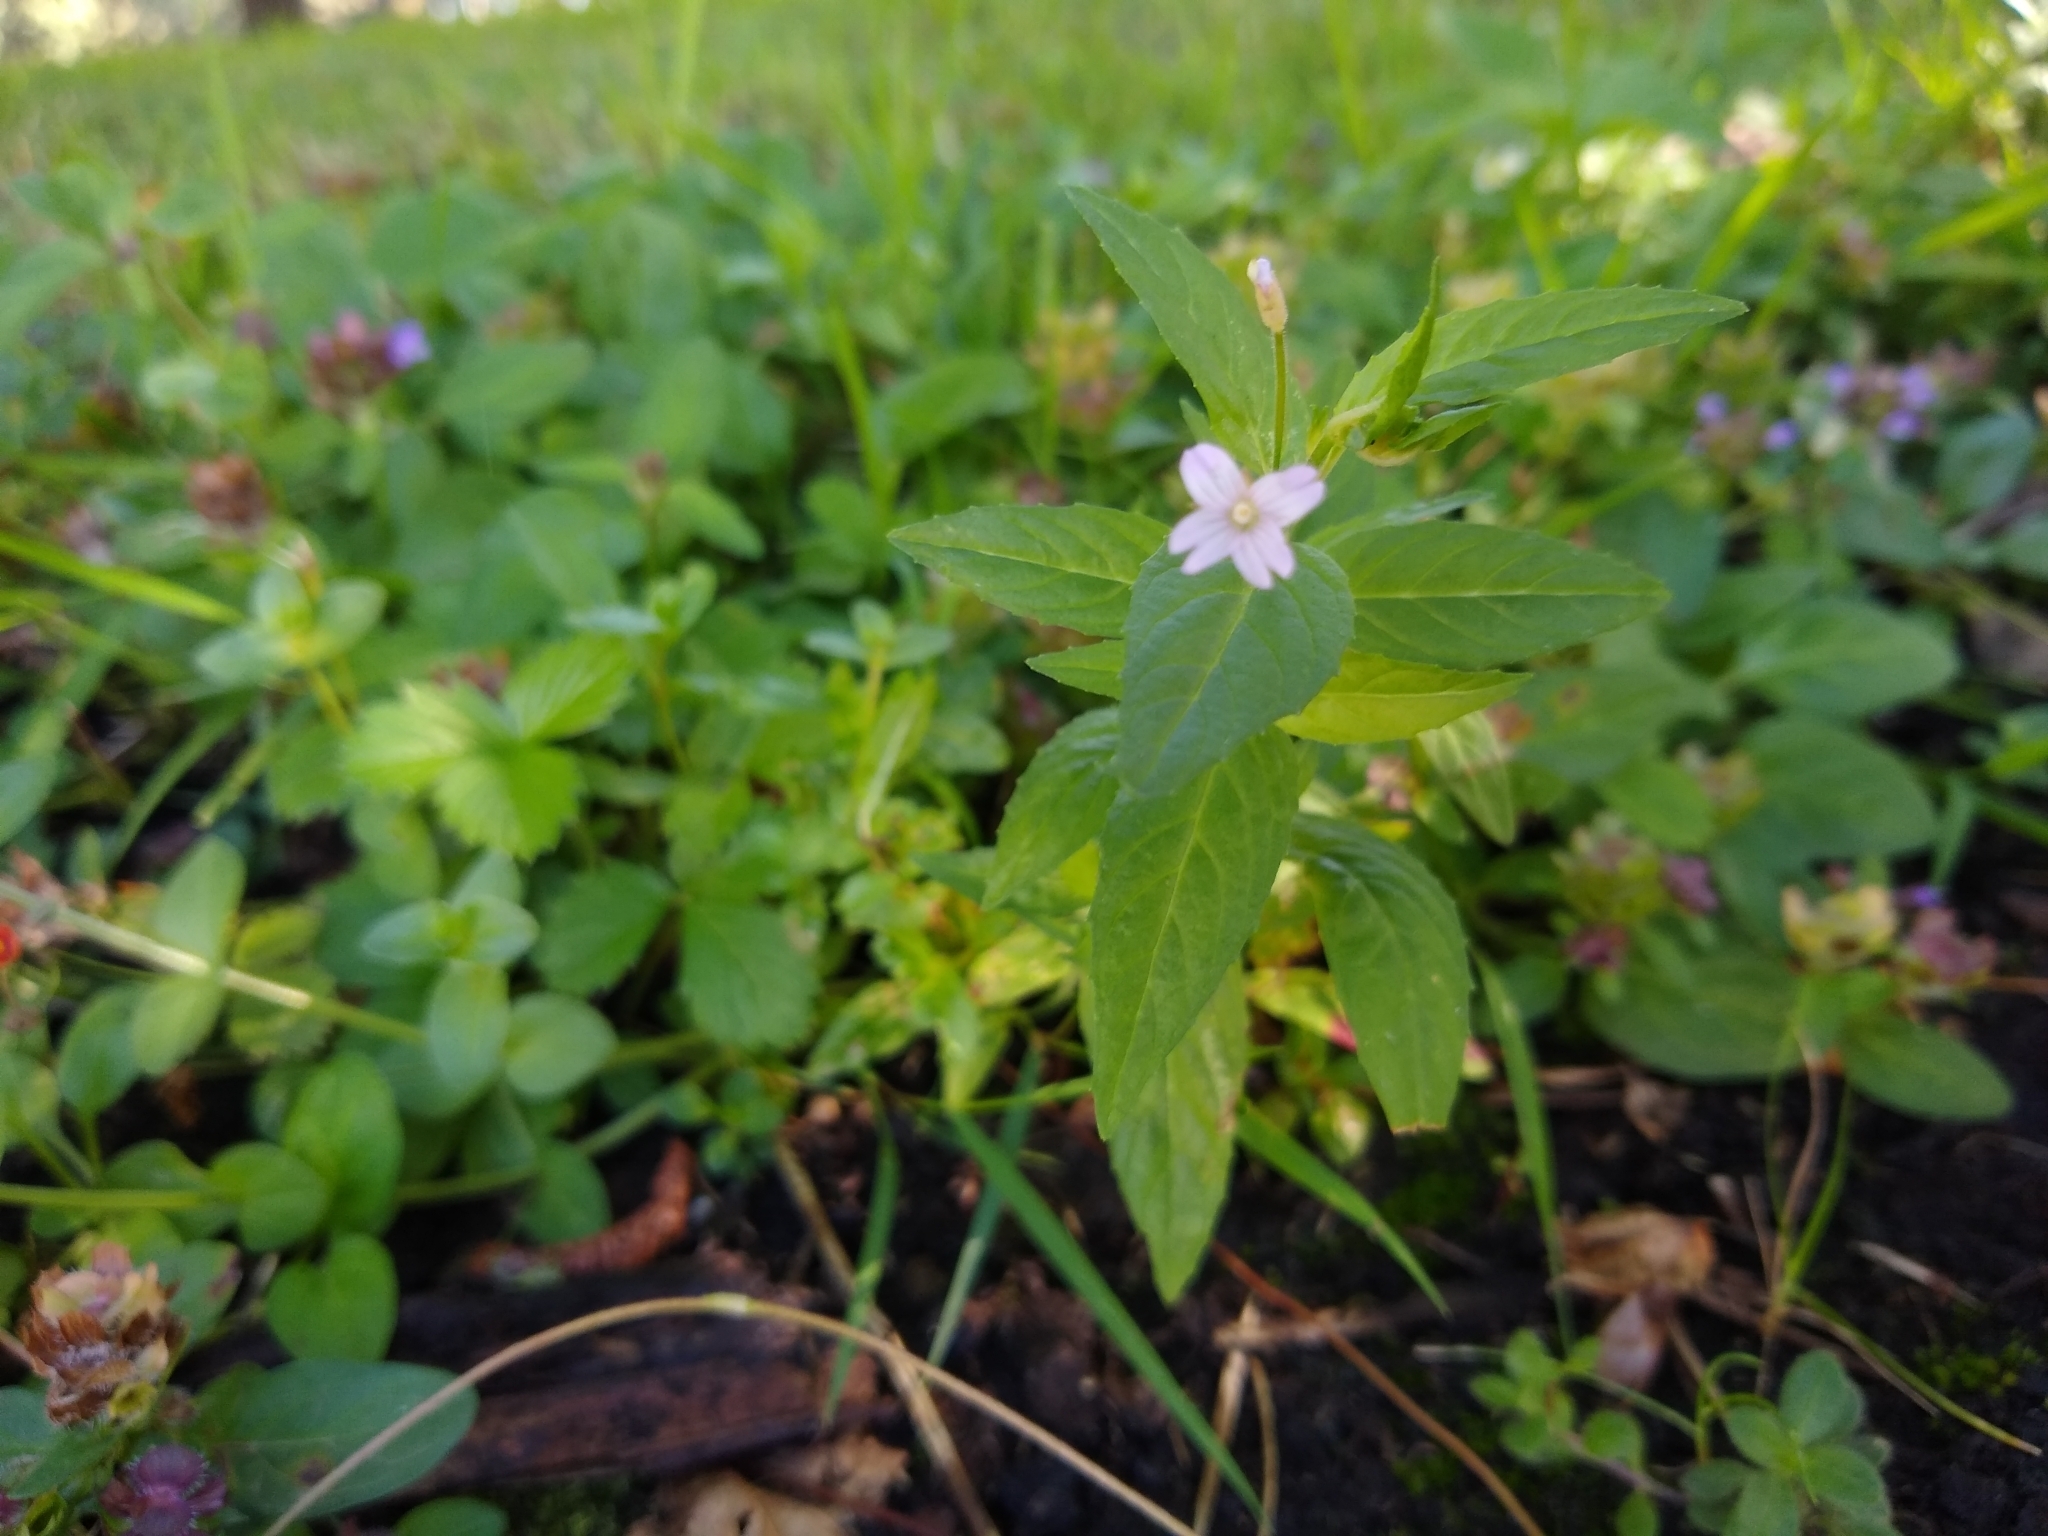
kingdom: Plantae
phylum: Tracheophyta
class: Magnoliopsida
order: Myrtales
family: Onagraceae
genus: Epilobium
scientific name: Epilobium ciliatum
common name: American willowherb
